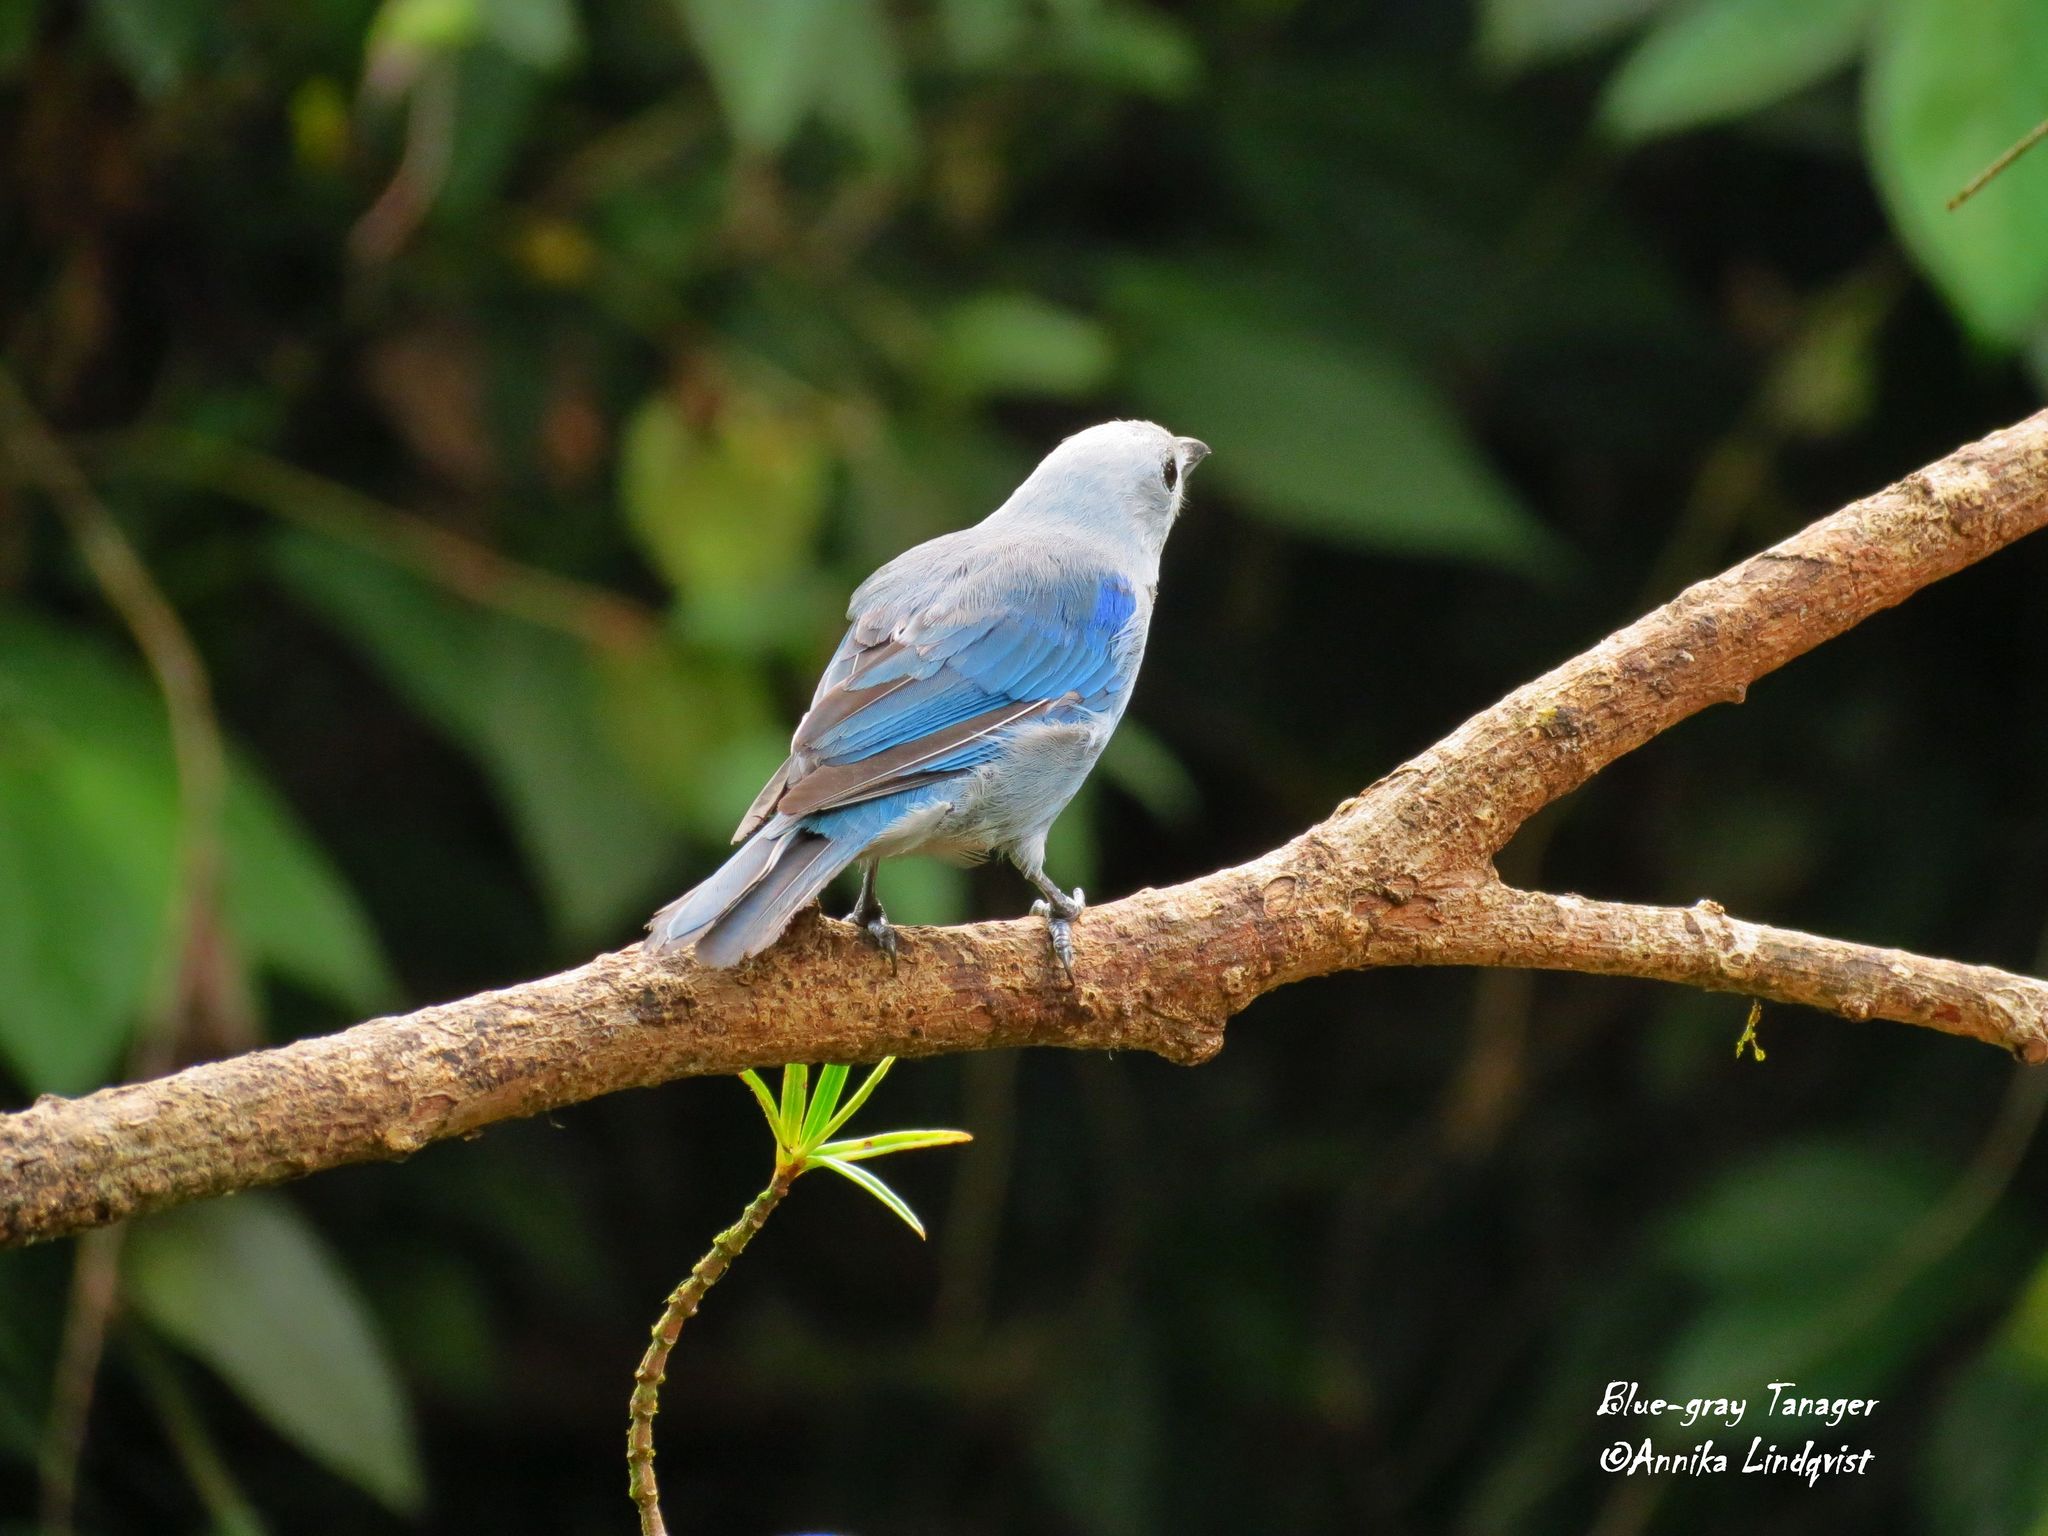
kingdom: Animalia
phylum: Chordata
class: Aves
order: Passeriformes
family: Thraupidae
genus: Thraupis
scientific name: Thraupis episcopus
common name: Blue-grey tanager
